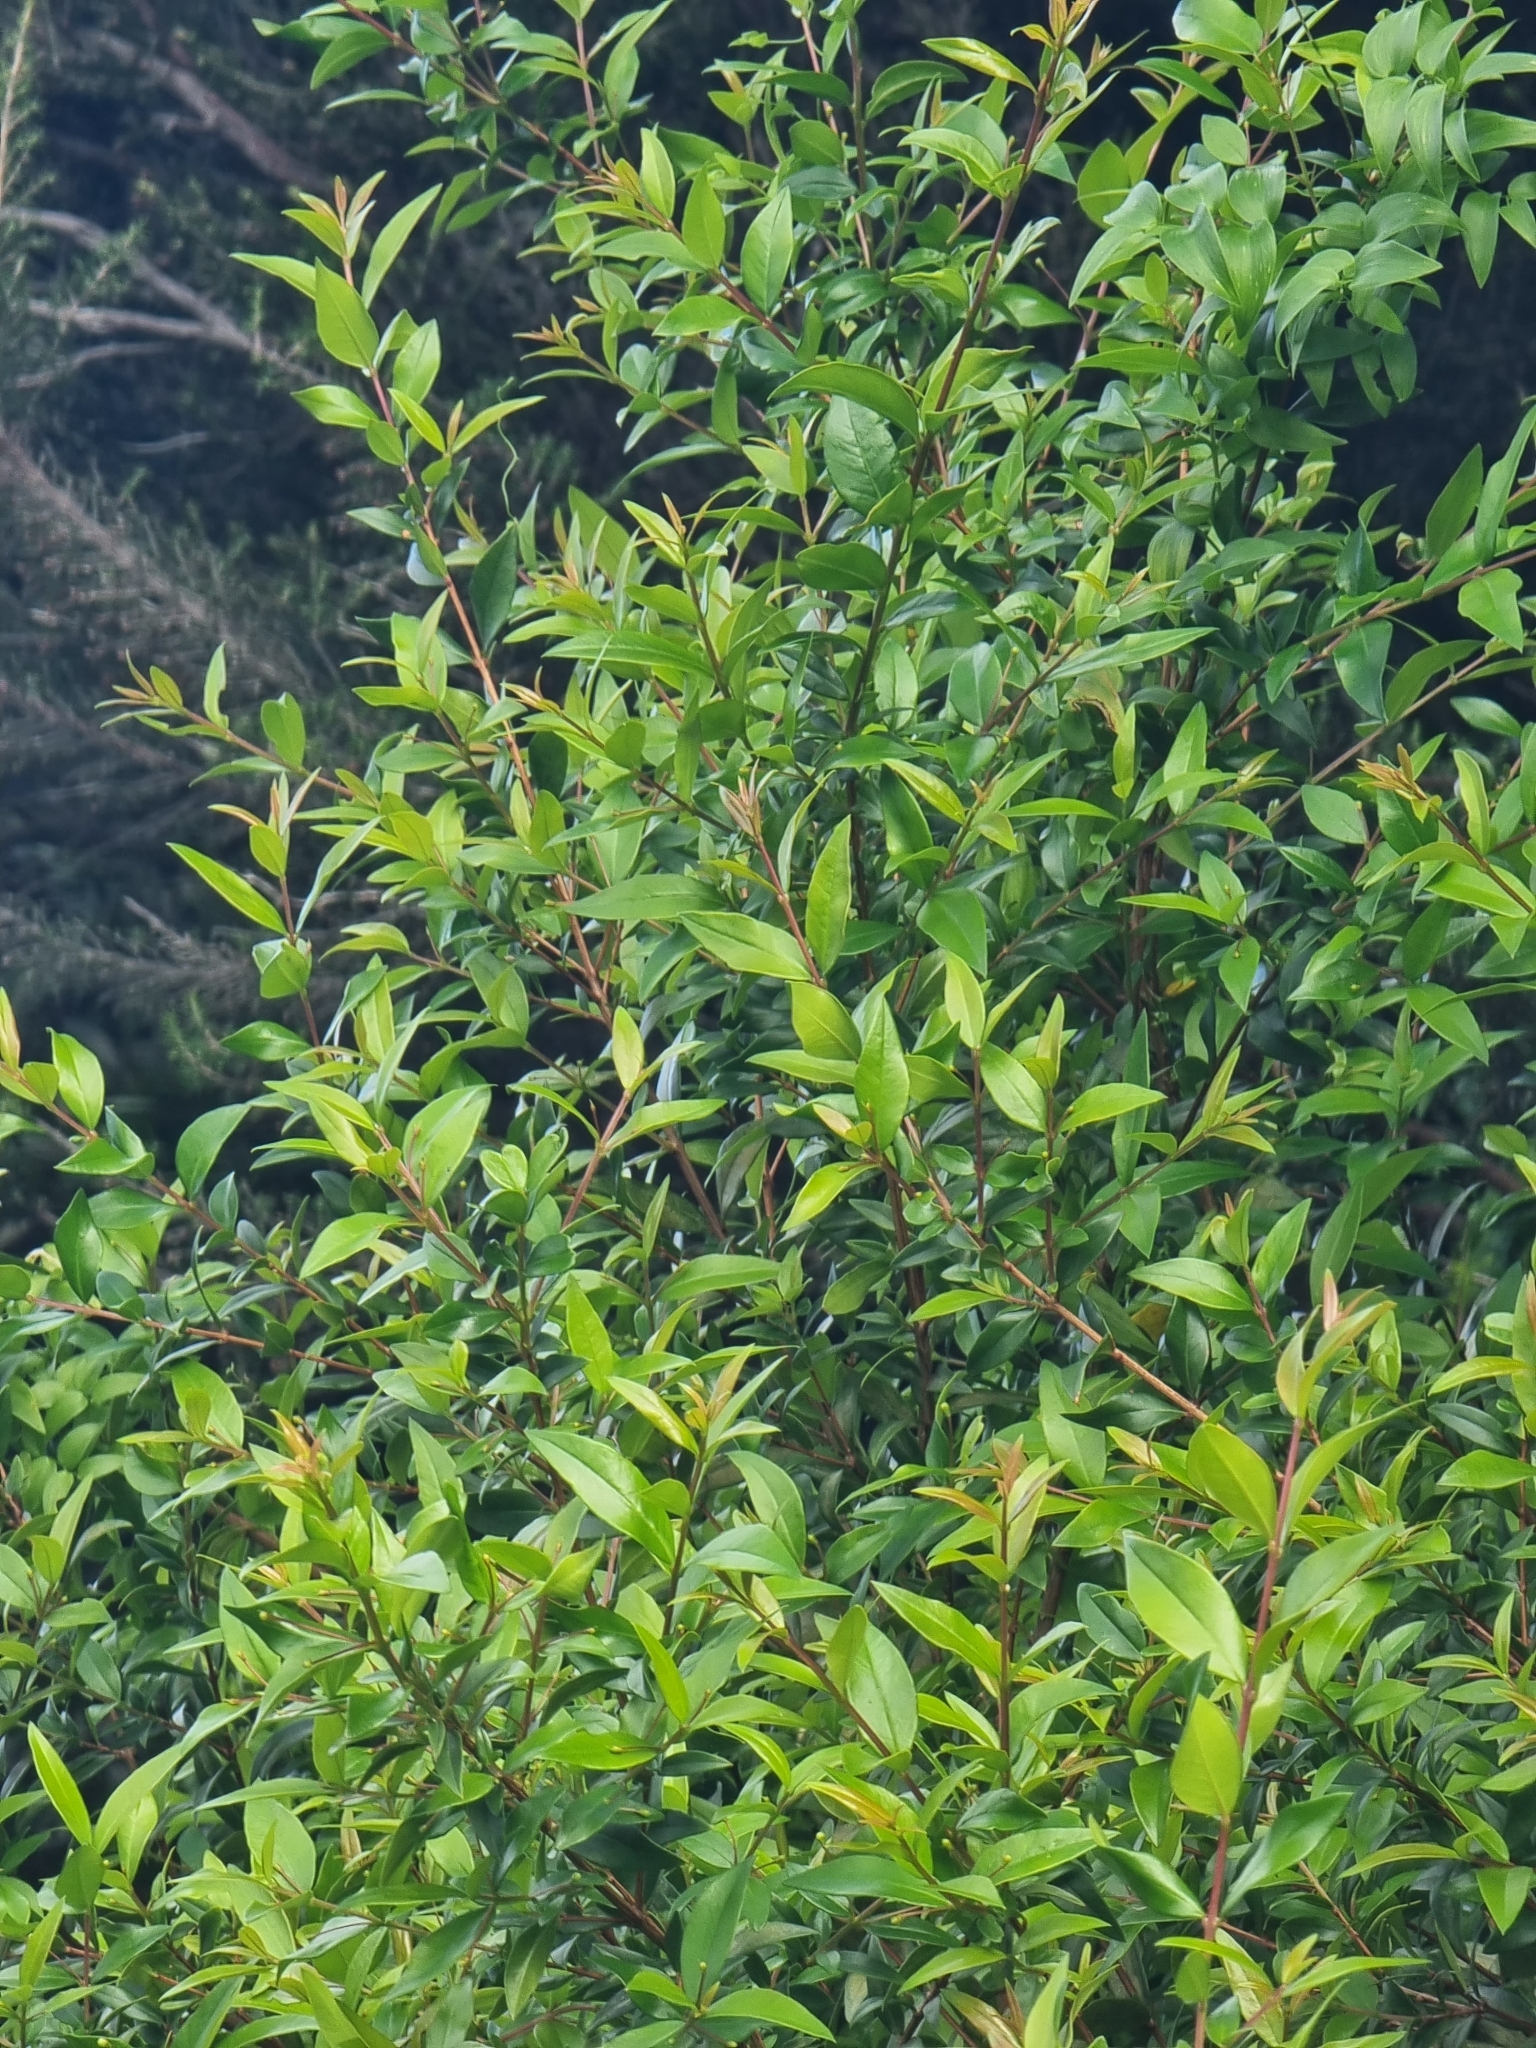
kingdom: Plantae
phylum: Tracheophyta
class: Magnoliopsida
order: Myrtales
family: Myrtaceae
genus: Myrtus
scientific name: Myrtus communis
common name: Myrtle
